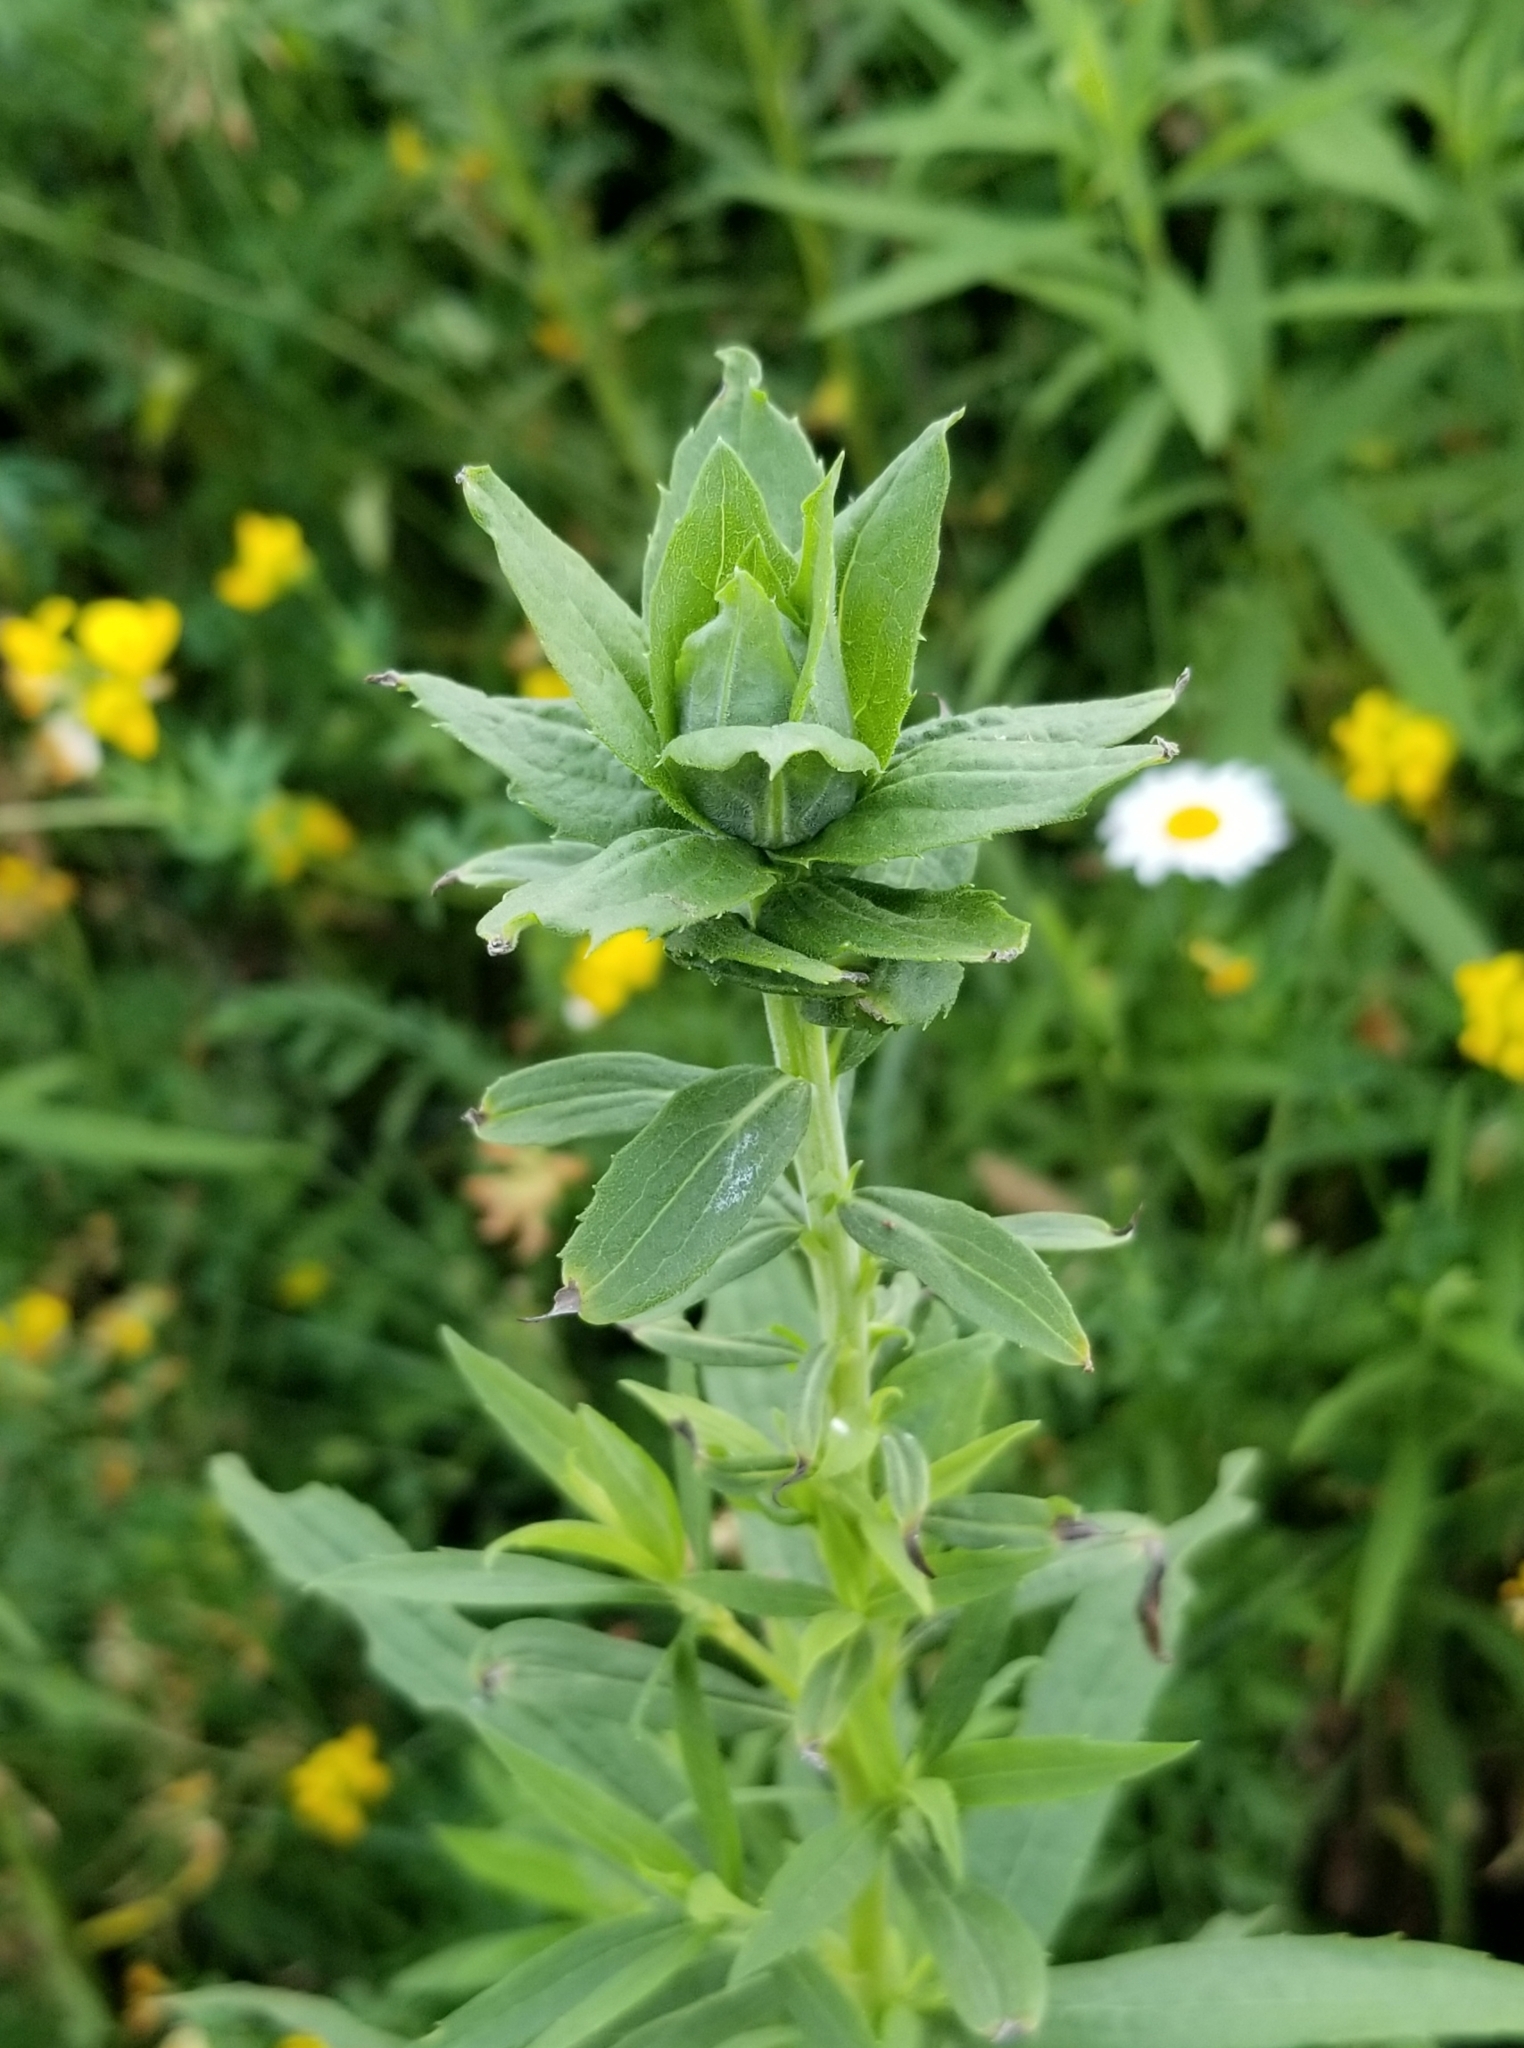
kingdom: Animalia
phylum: Arthropoda
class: Insecta
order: Diptera
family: Cecidomyiidae
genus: Rhopalomyia
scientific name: Rhopalomyia solidaginis
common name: Goldenrod bunch gall midge
